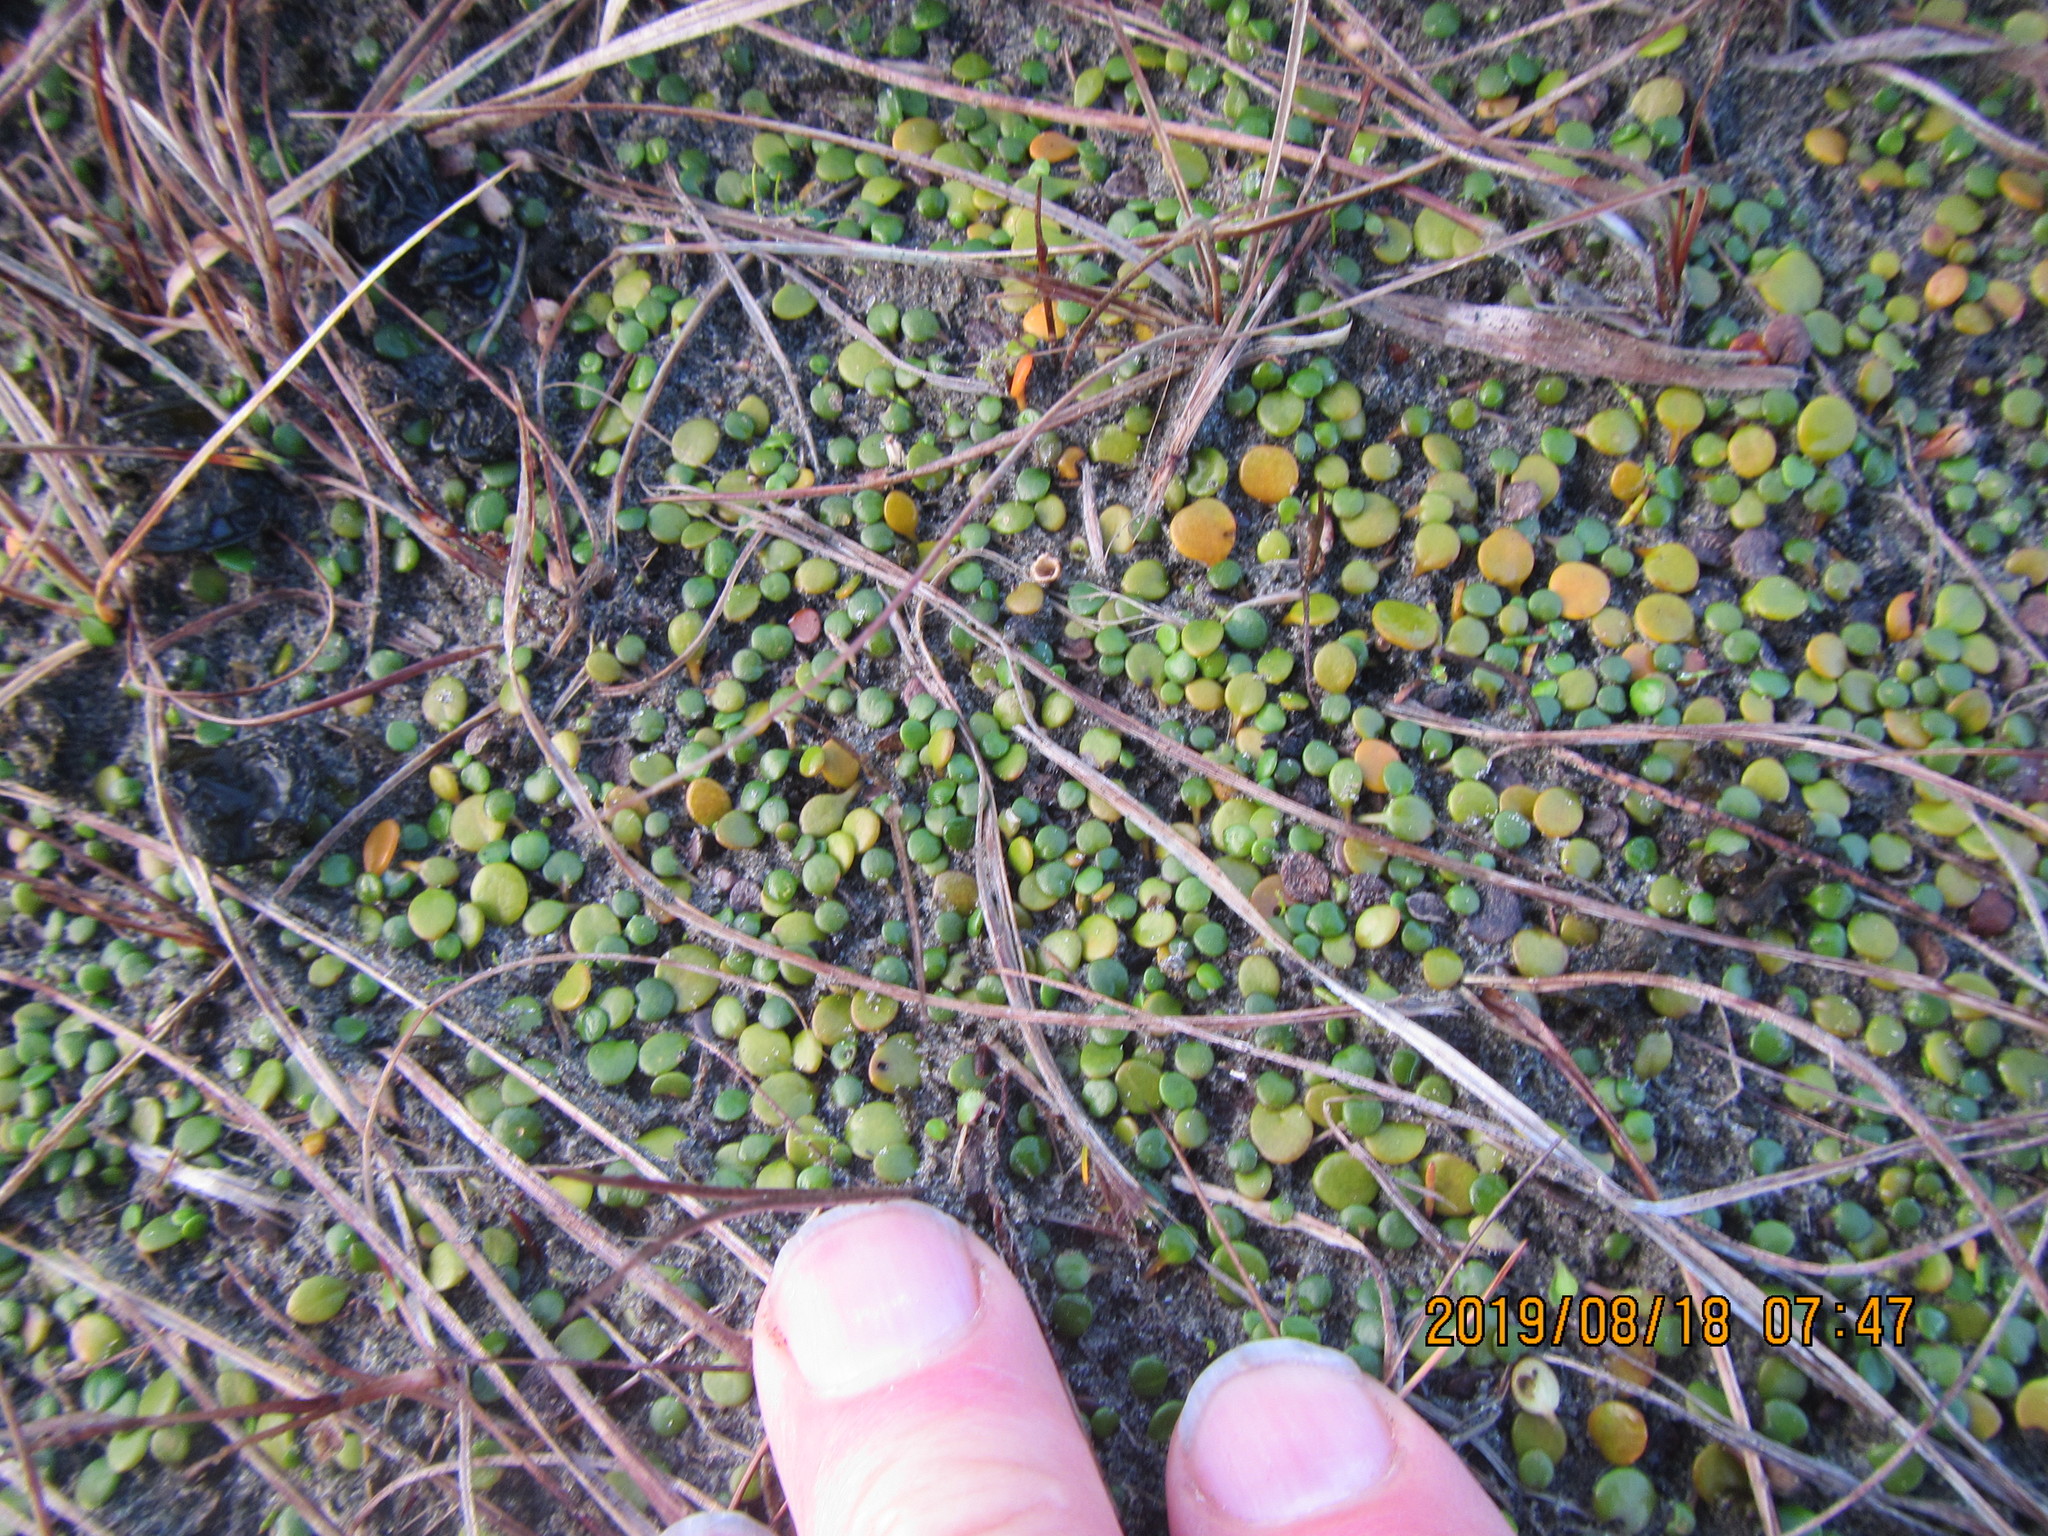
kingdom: Plantae
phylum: Tracheophyta
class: Magnoliopsida
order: Asterales
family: Goodeniaceae
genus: Goodenia
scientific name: Goodenia heenanii
